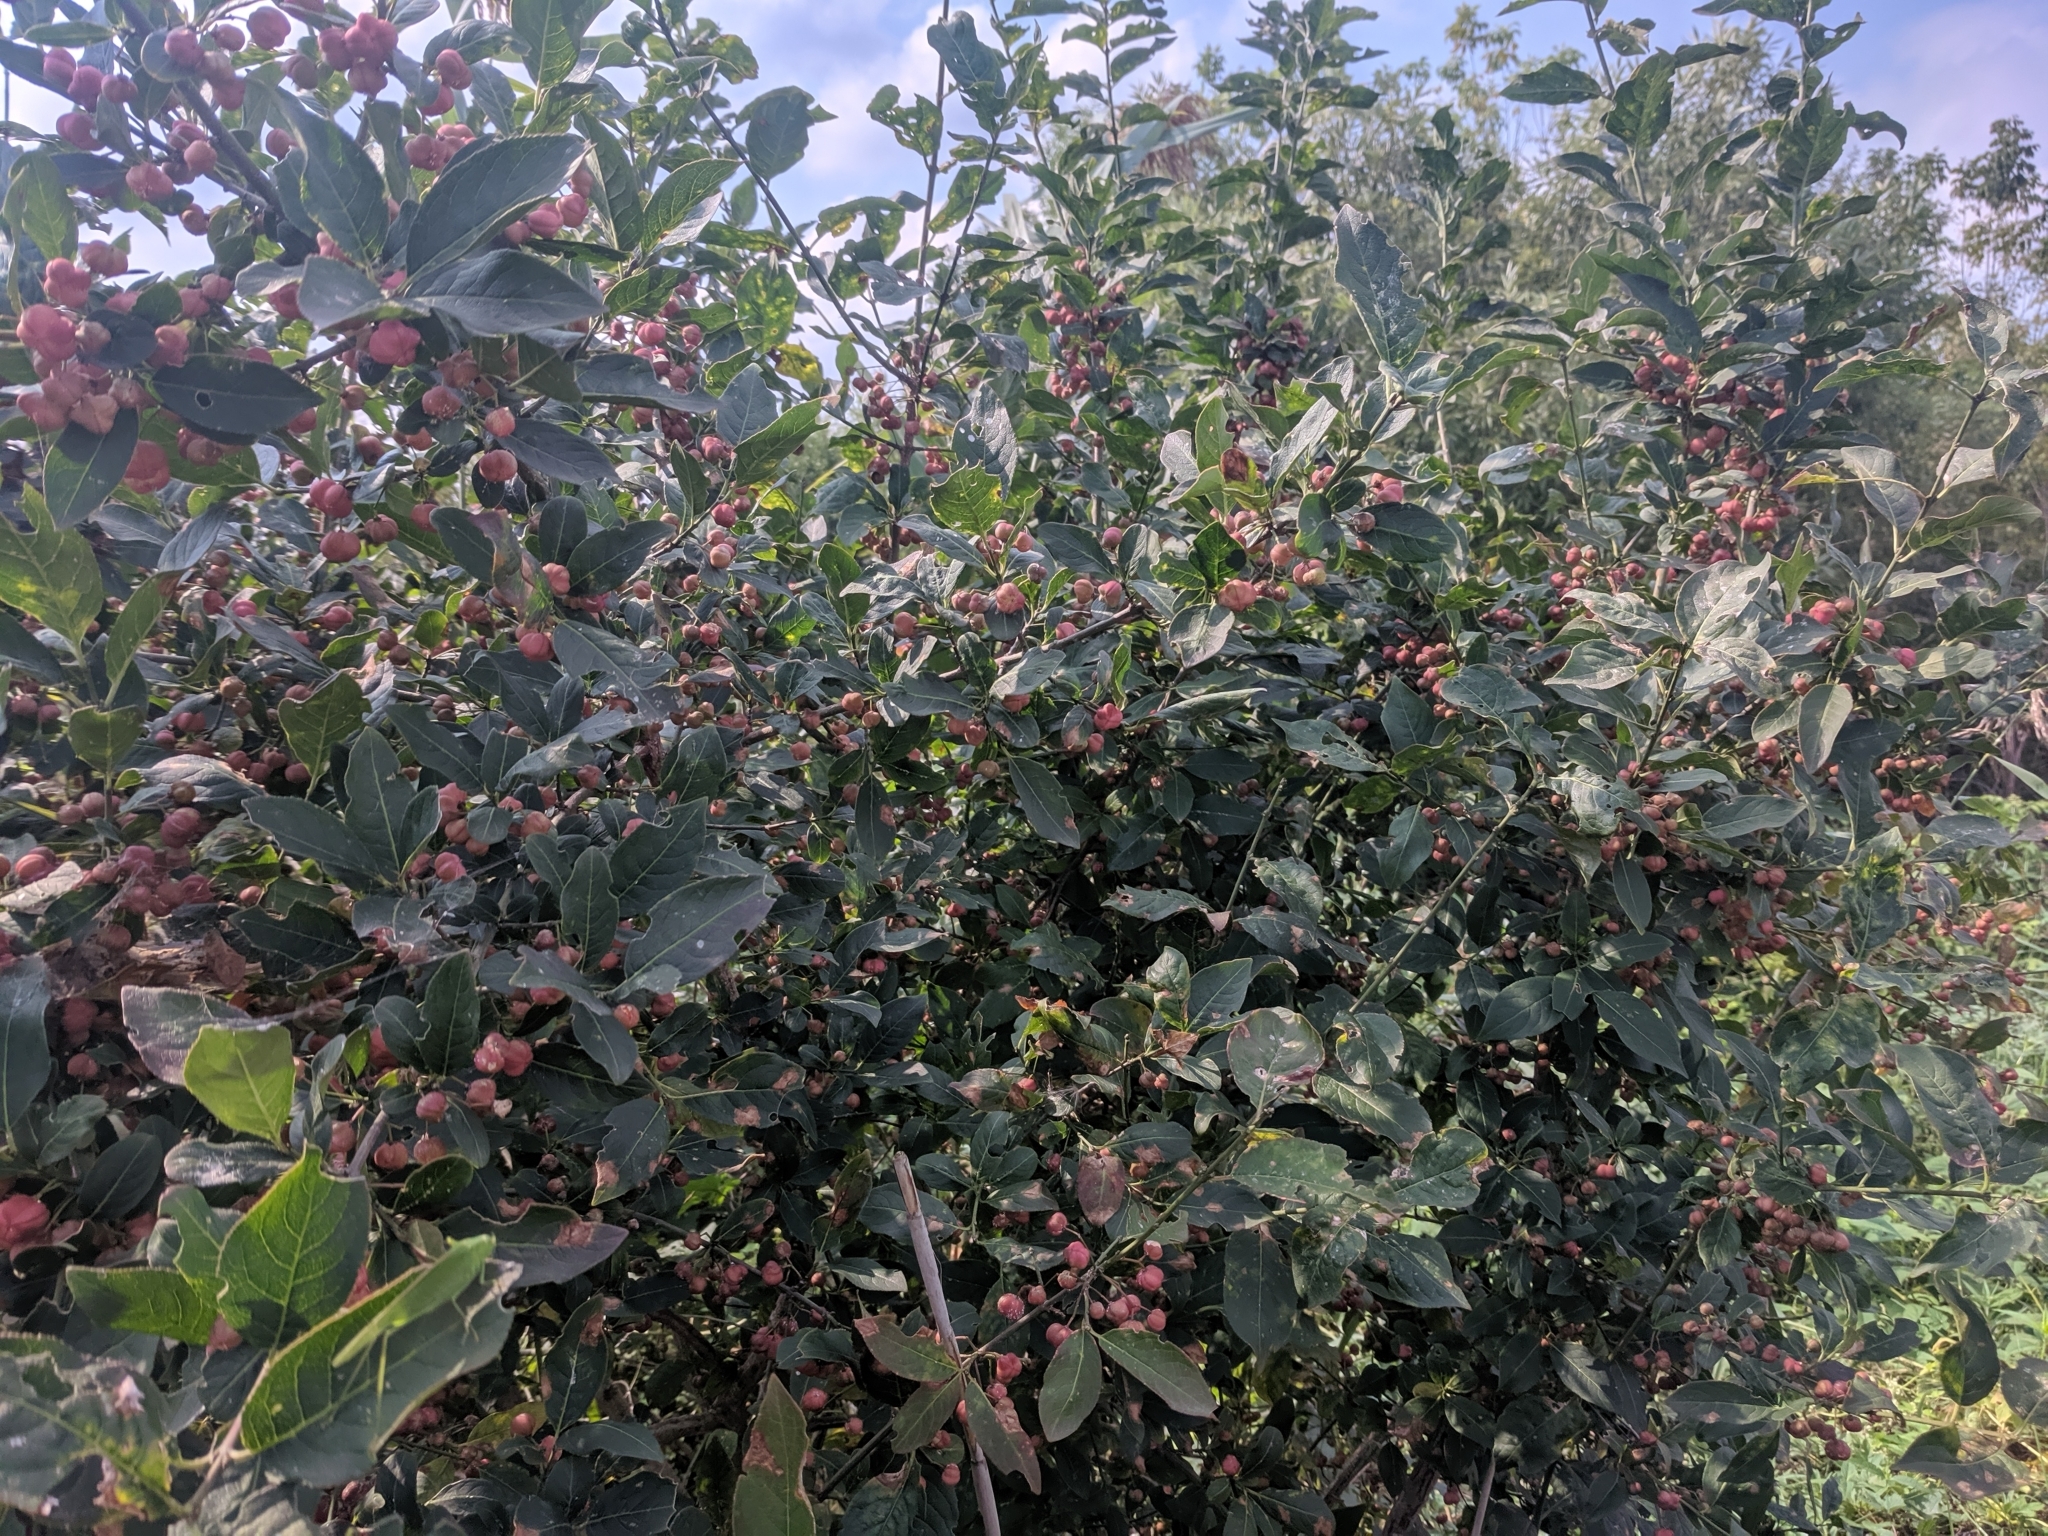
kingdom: Plantae
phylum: Tracheophyta
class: Magnoliopsida
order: Celastrales
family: Celastraceae
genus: Euonymus
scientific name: Euonymus europaeus
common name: Spindle
